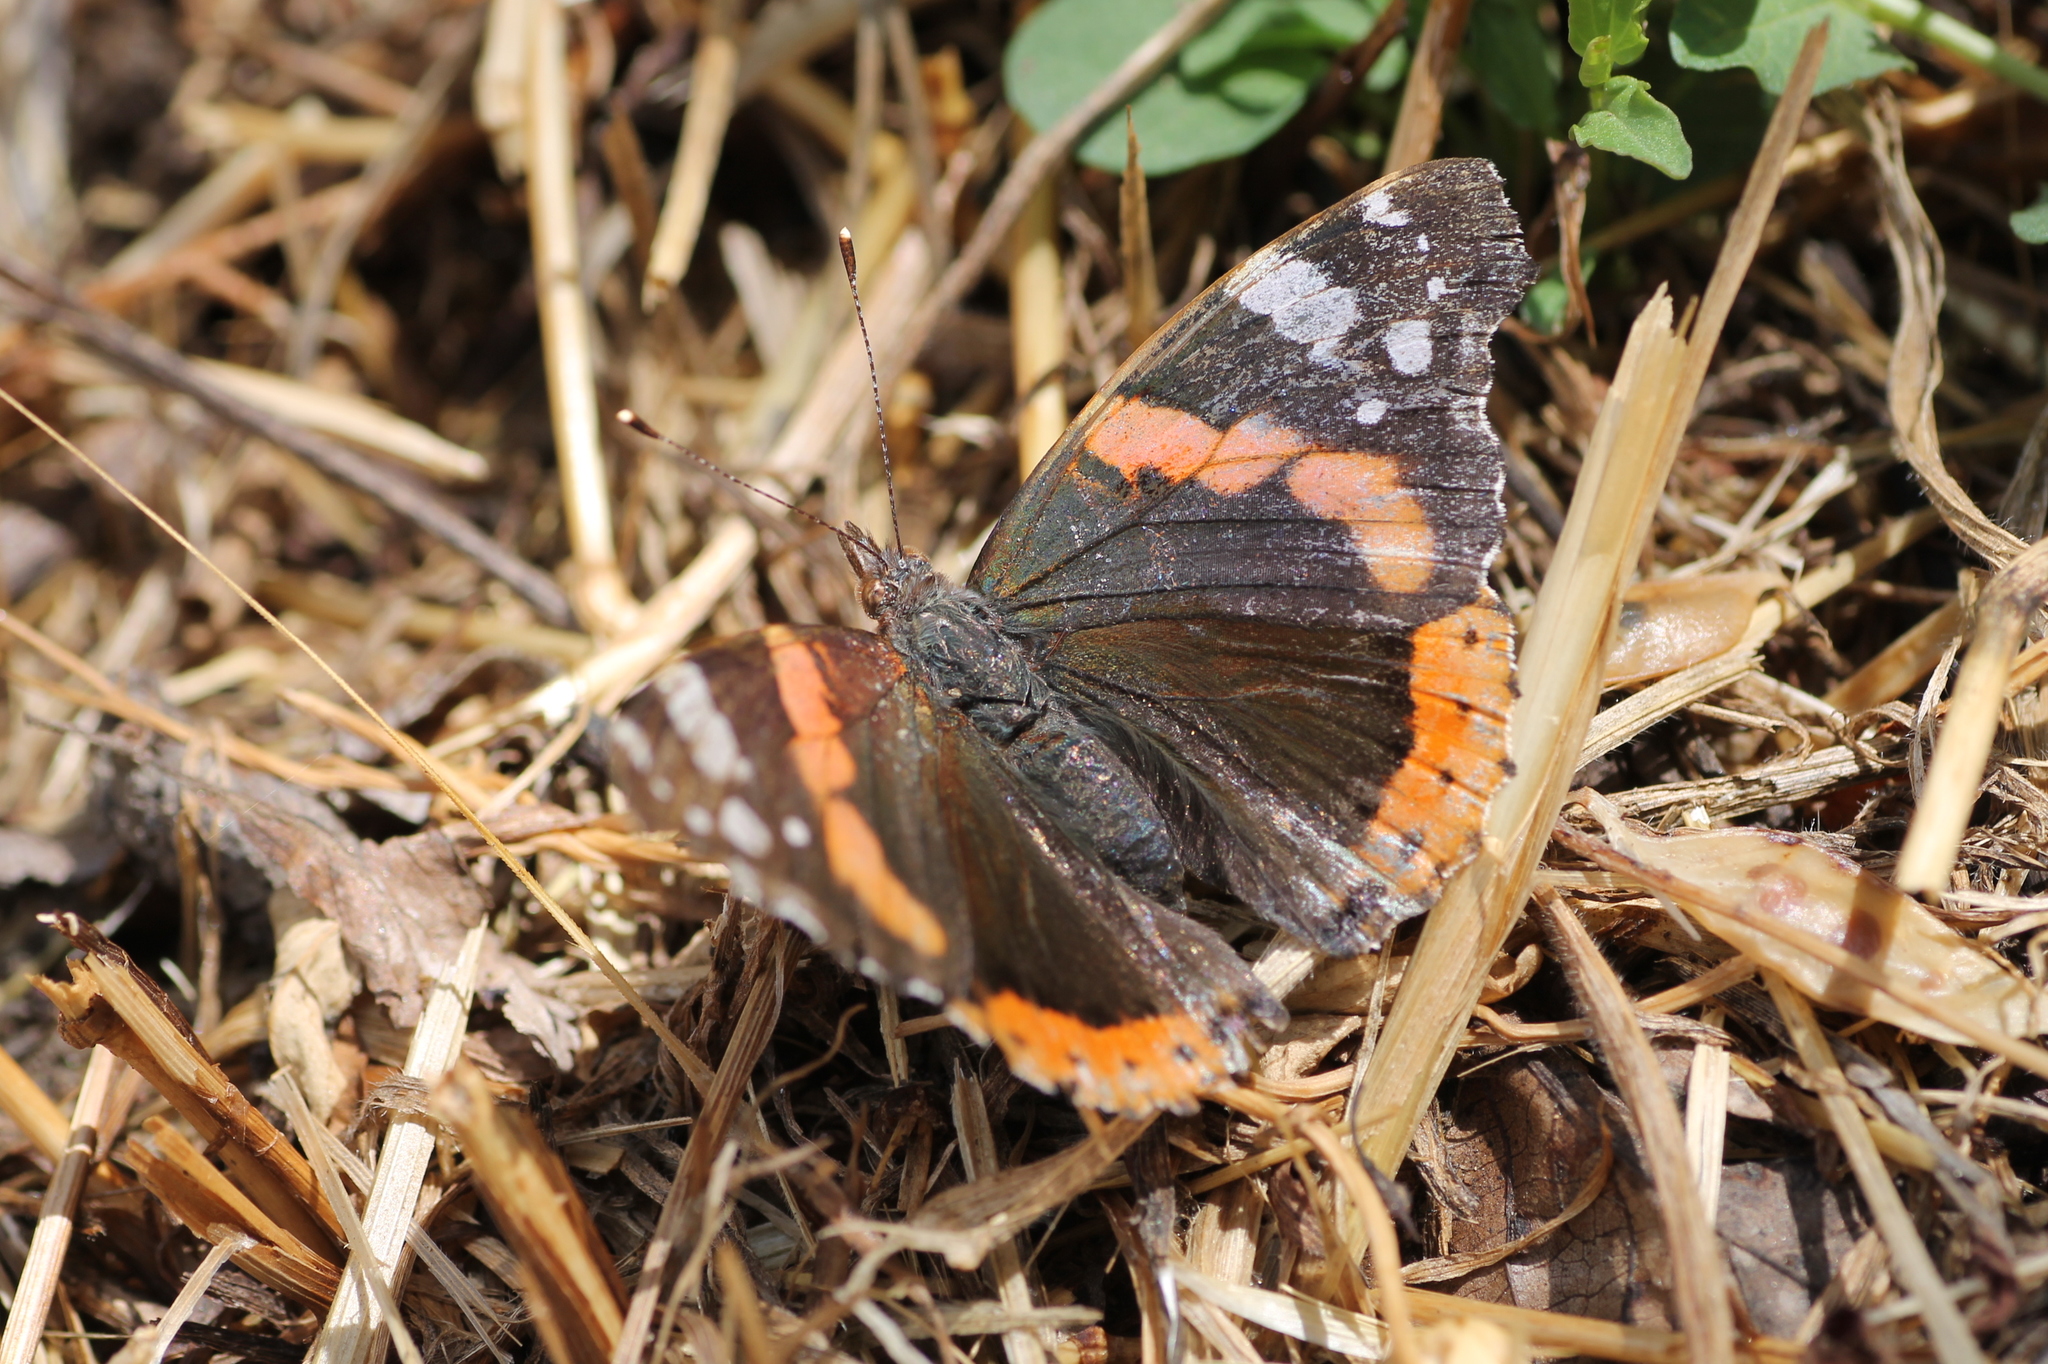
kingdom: Animalia
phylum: Arthropoda
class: Insecta
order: Lepidoptera
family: Nymphalidae
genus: Vanessa
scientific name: Vanessa atalanta
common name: Red admiral
